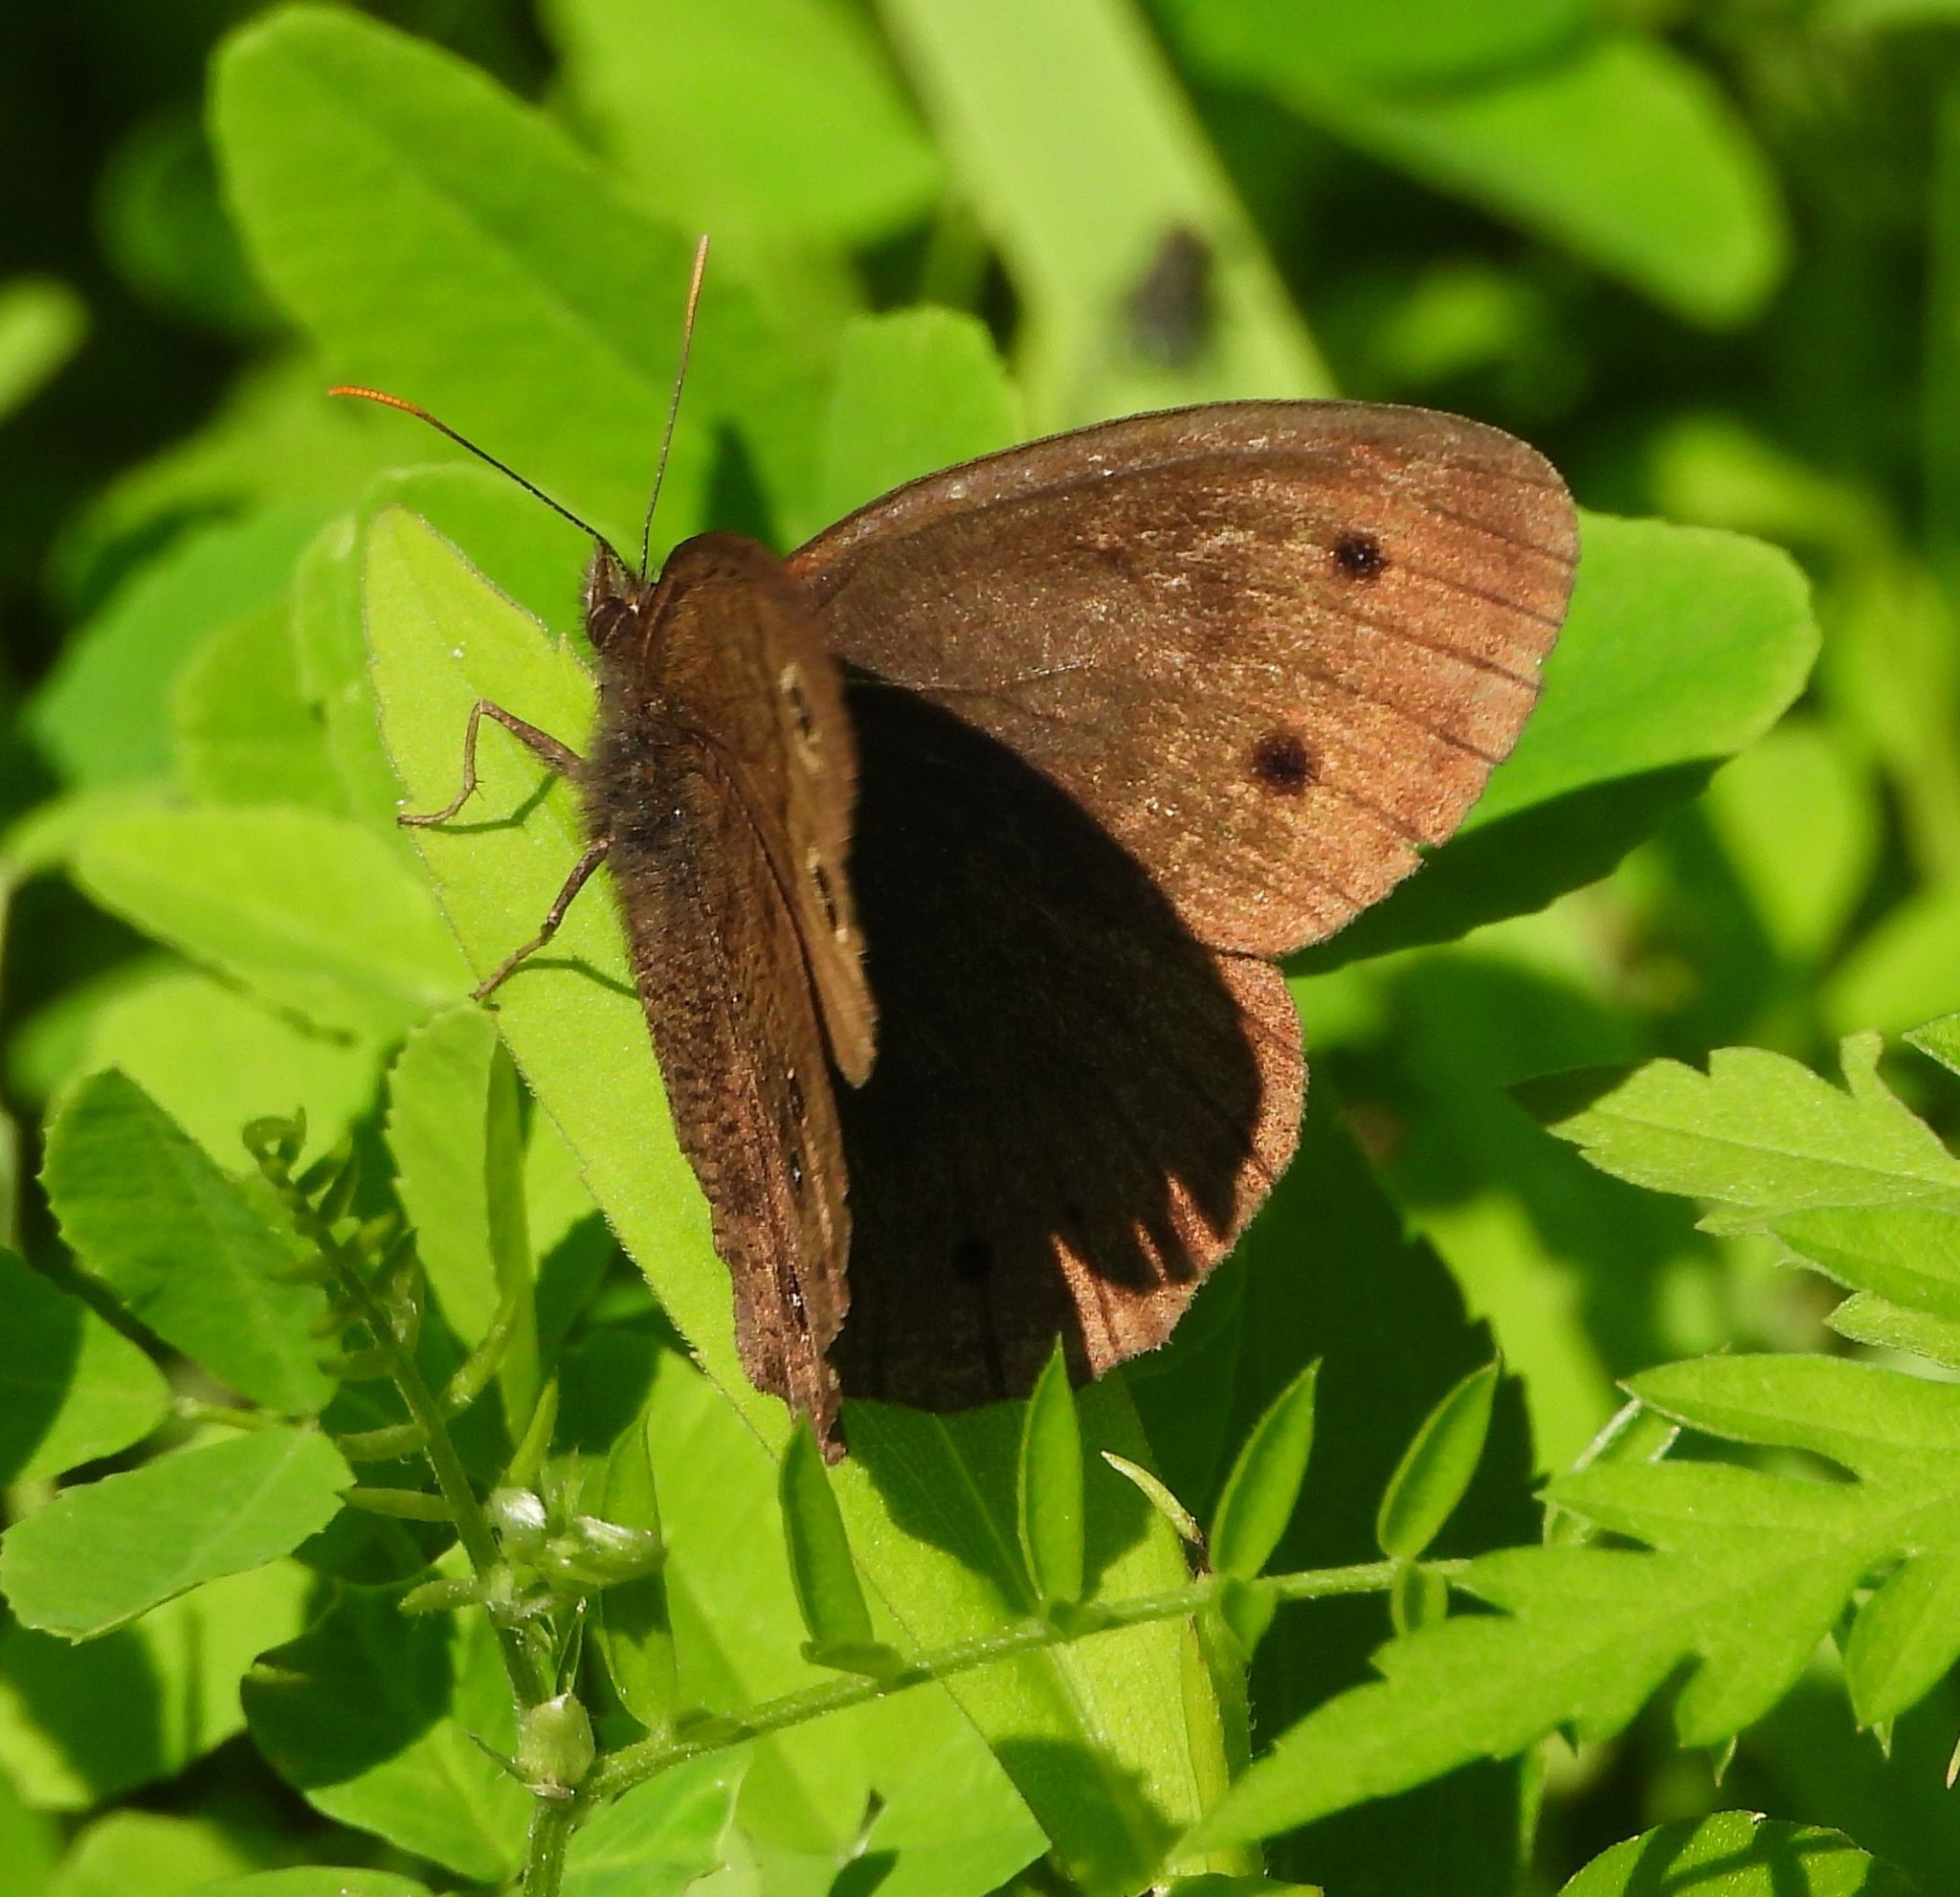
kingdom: Animalia
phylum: Arthropoda
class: Insecta
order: Lepidoptera
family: Nymphalidae
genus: Cercyonis
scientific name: Cercyonis pegala
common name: Common wood-nymph
